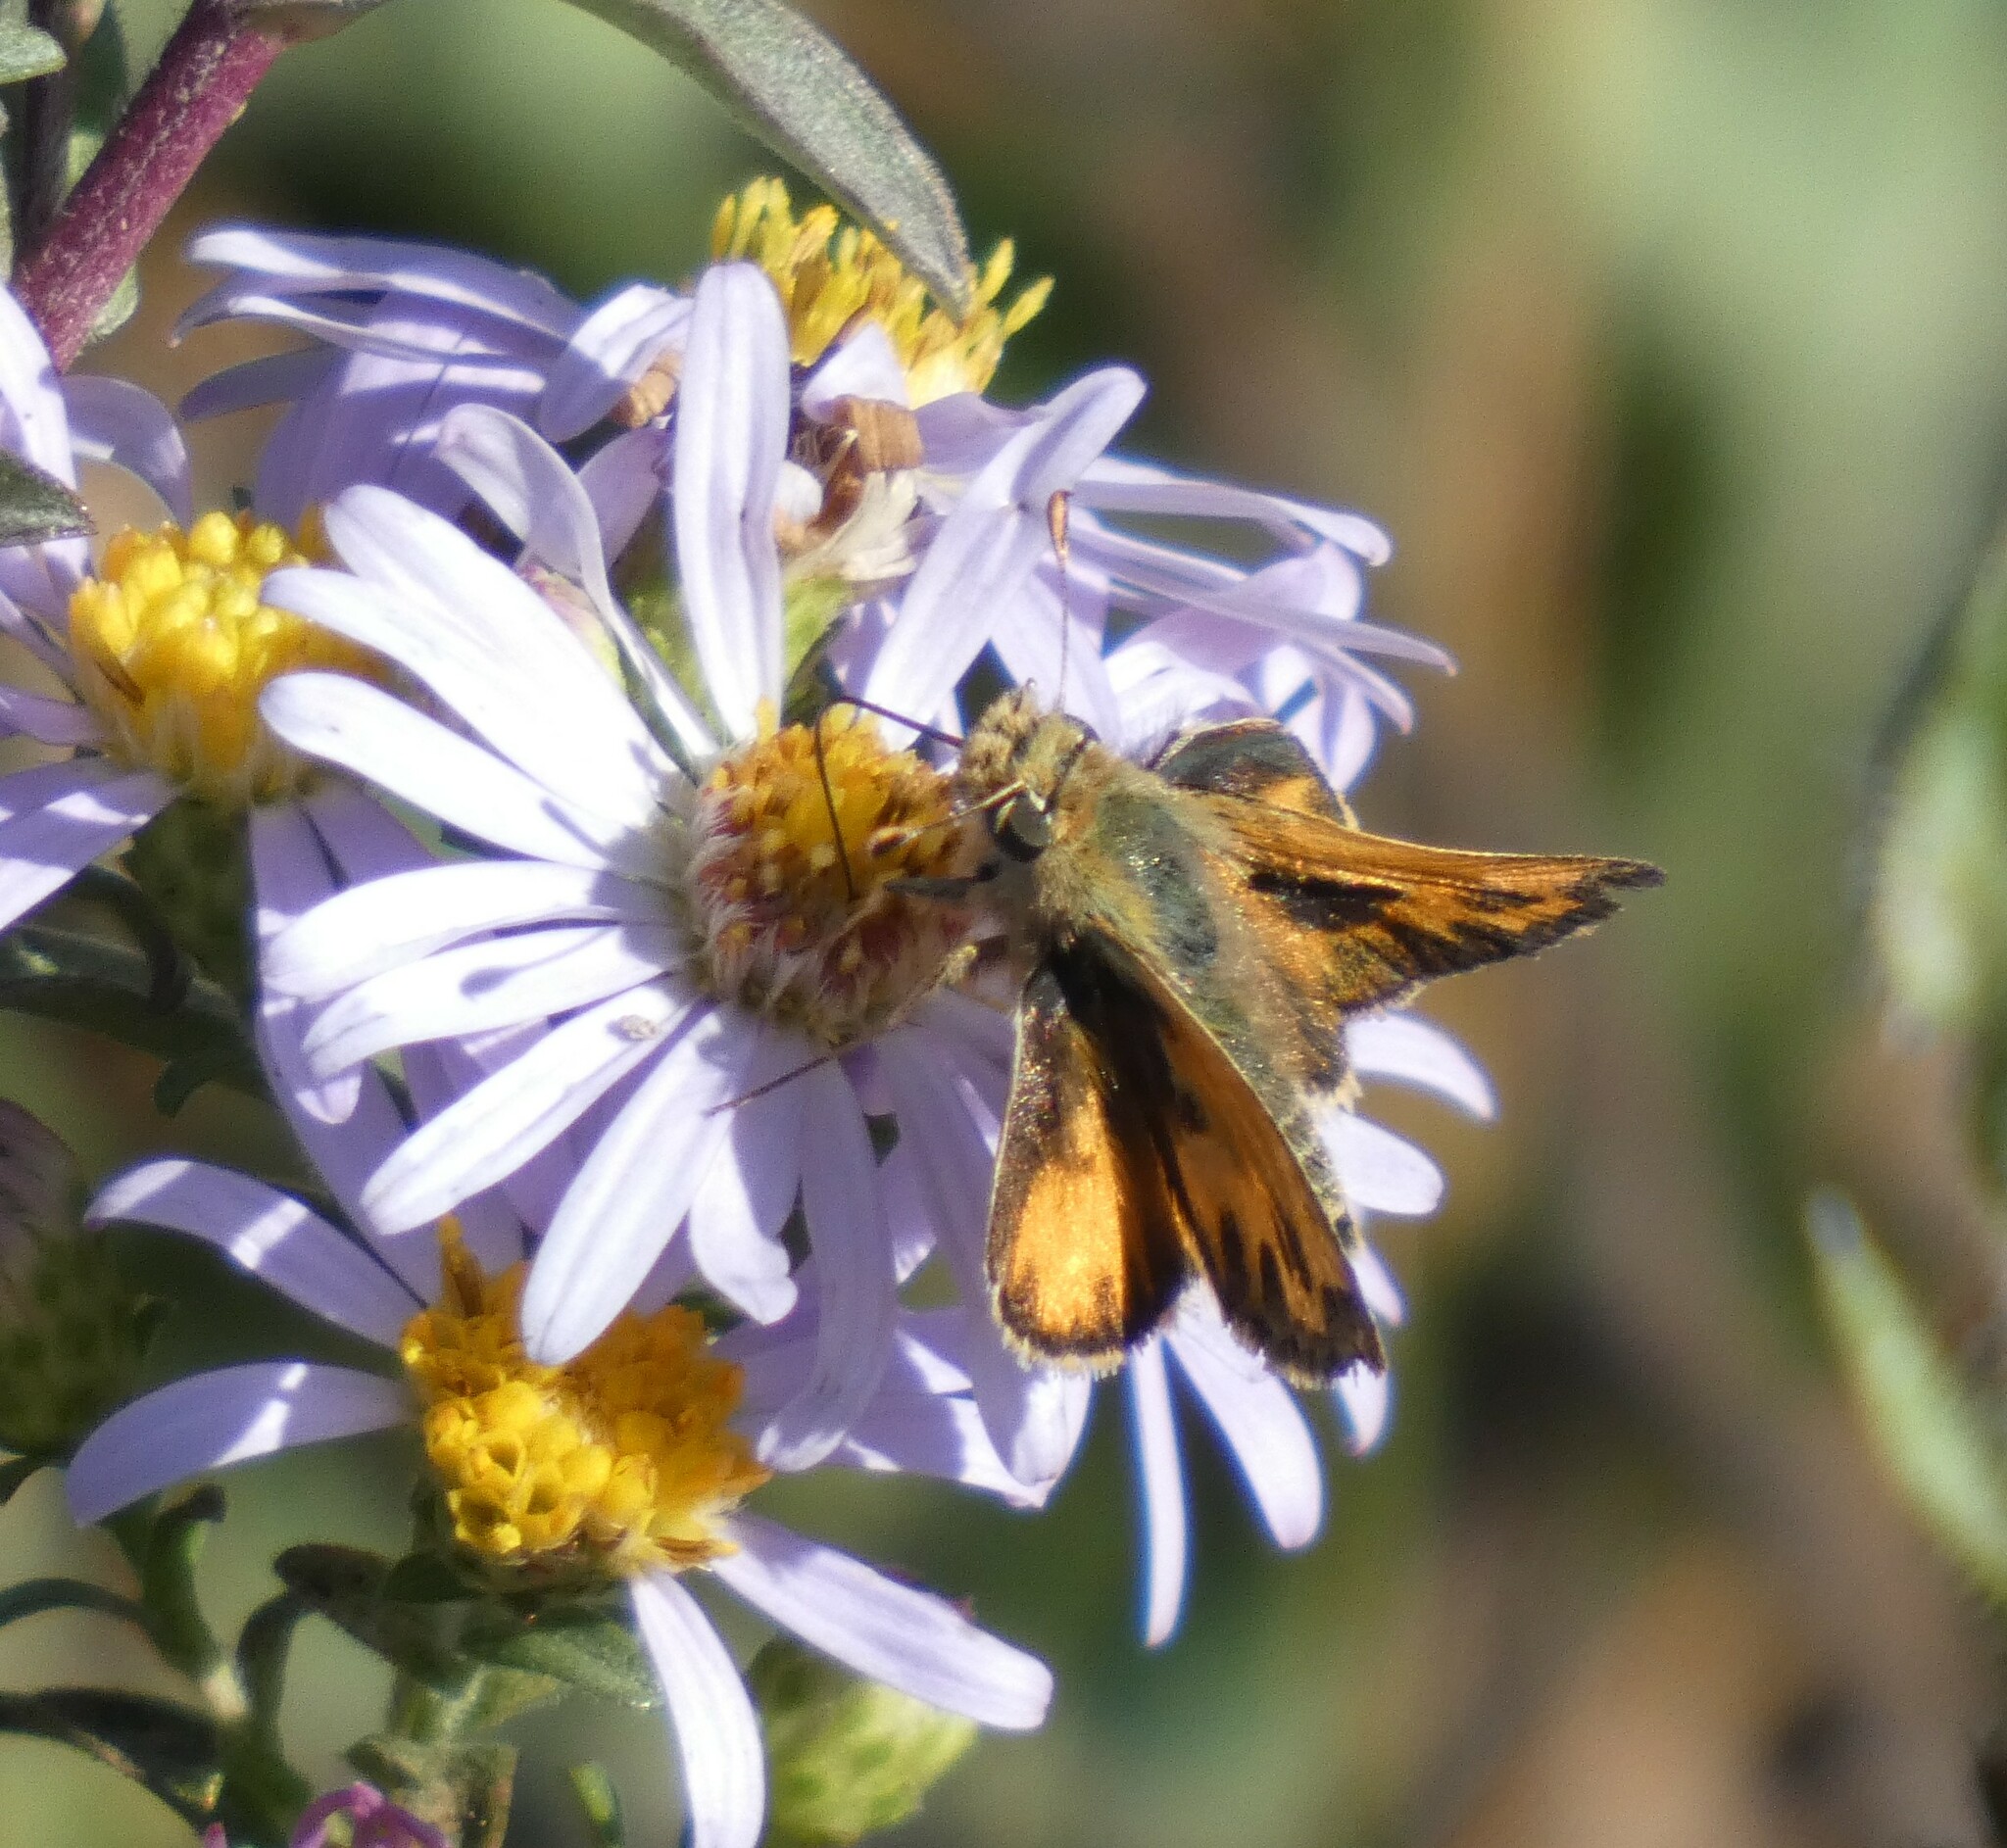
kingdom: Animalia
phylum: Arthropoda
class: Insecta
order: Lepidoptera
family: Hesperiidae
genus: Polites
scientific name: Polites sabuleti
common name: Sandhill skipper
